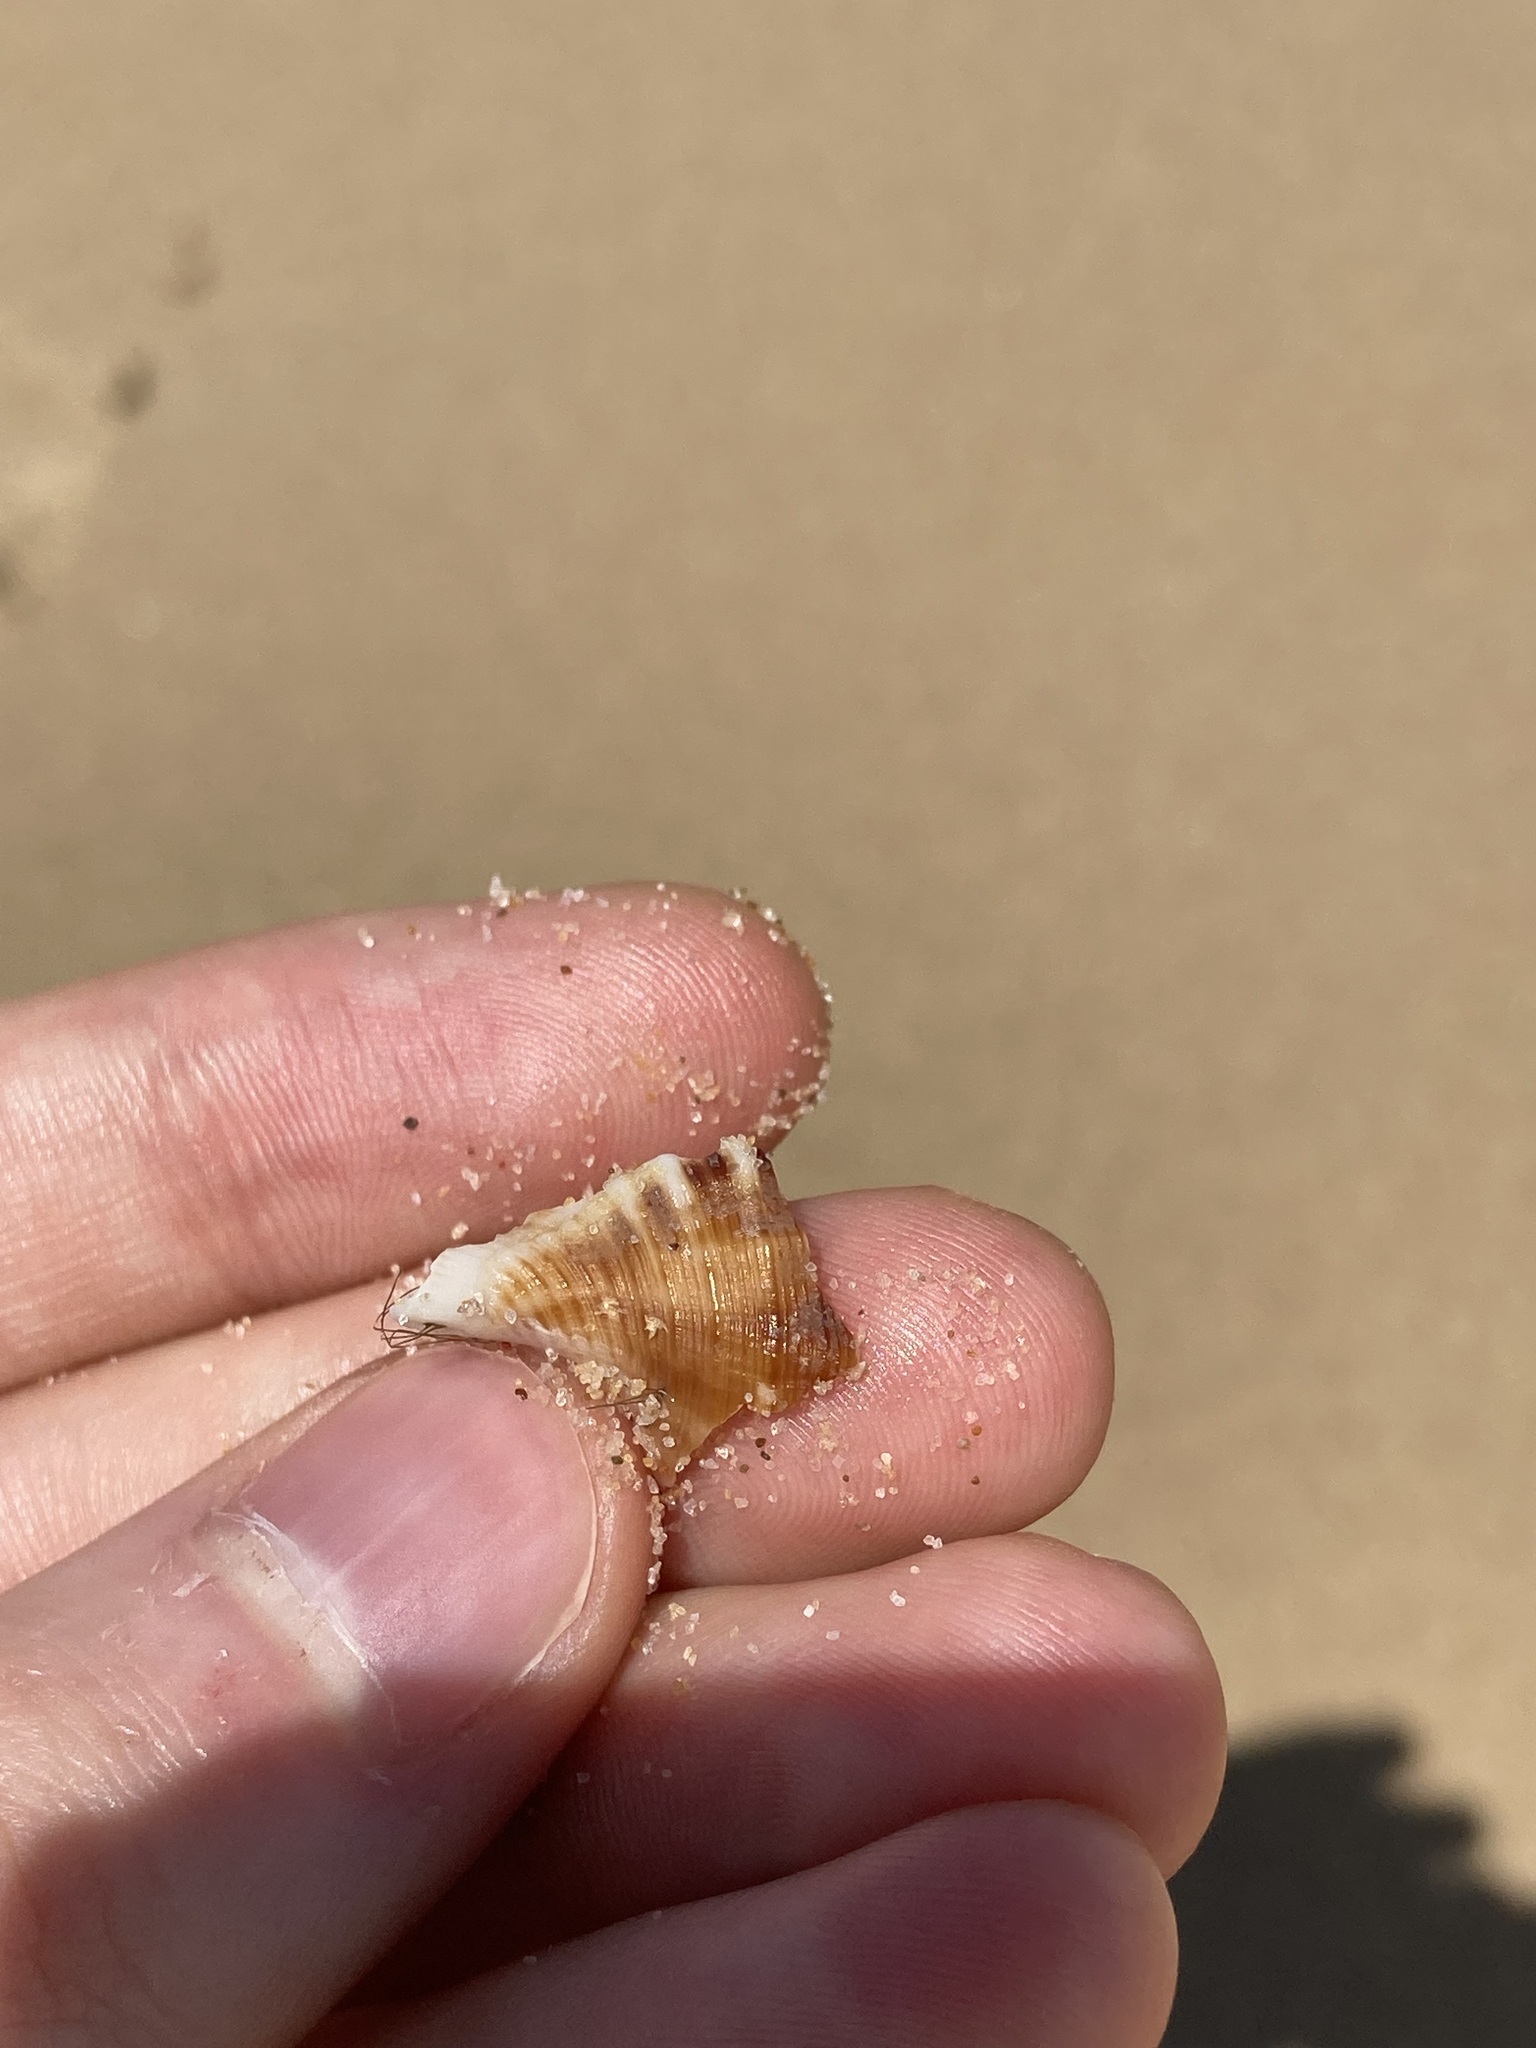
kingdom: Animalia
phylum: Mollusca
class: Gastropoda
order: Littorinimorpha
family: Ranellidae
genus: Ranella
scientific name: Ranella australasia
